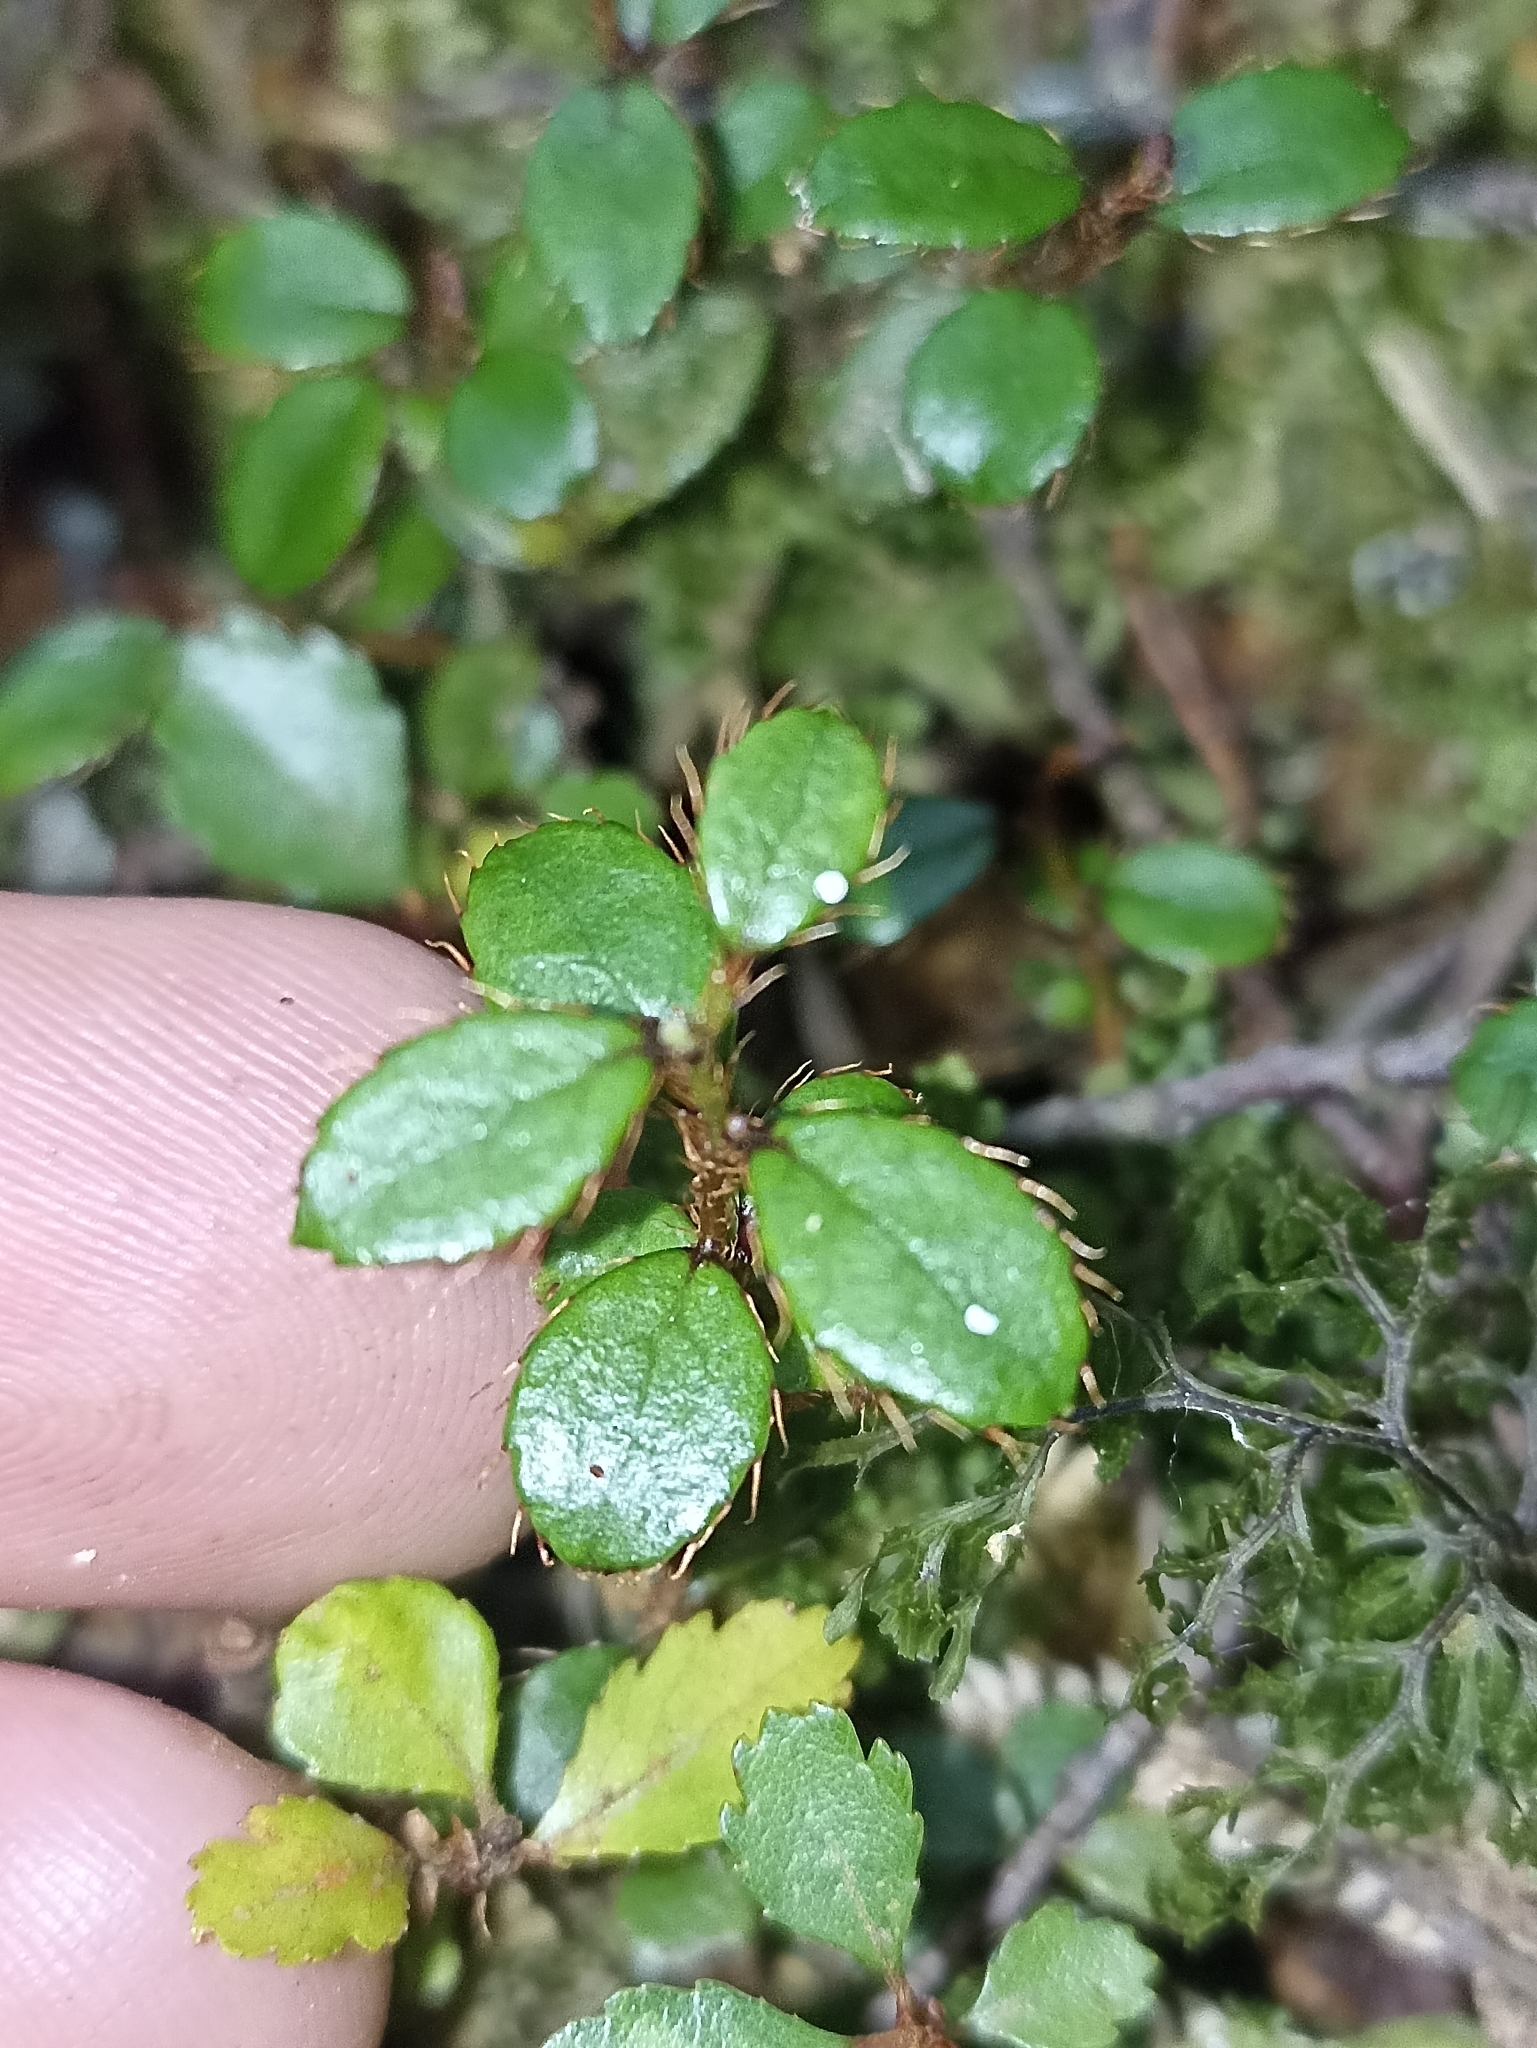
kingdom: Plantae
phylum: Tracheophyta
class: Magnoliopsida
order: Ericales
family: Ericaceae
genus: Gaultheria
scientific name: Gaultheria depressa
